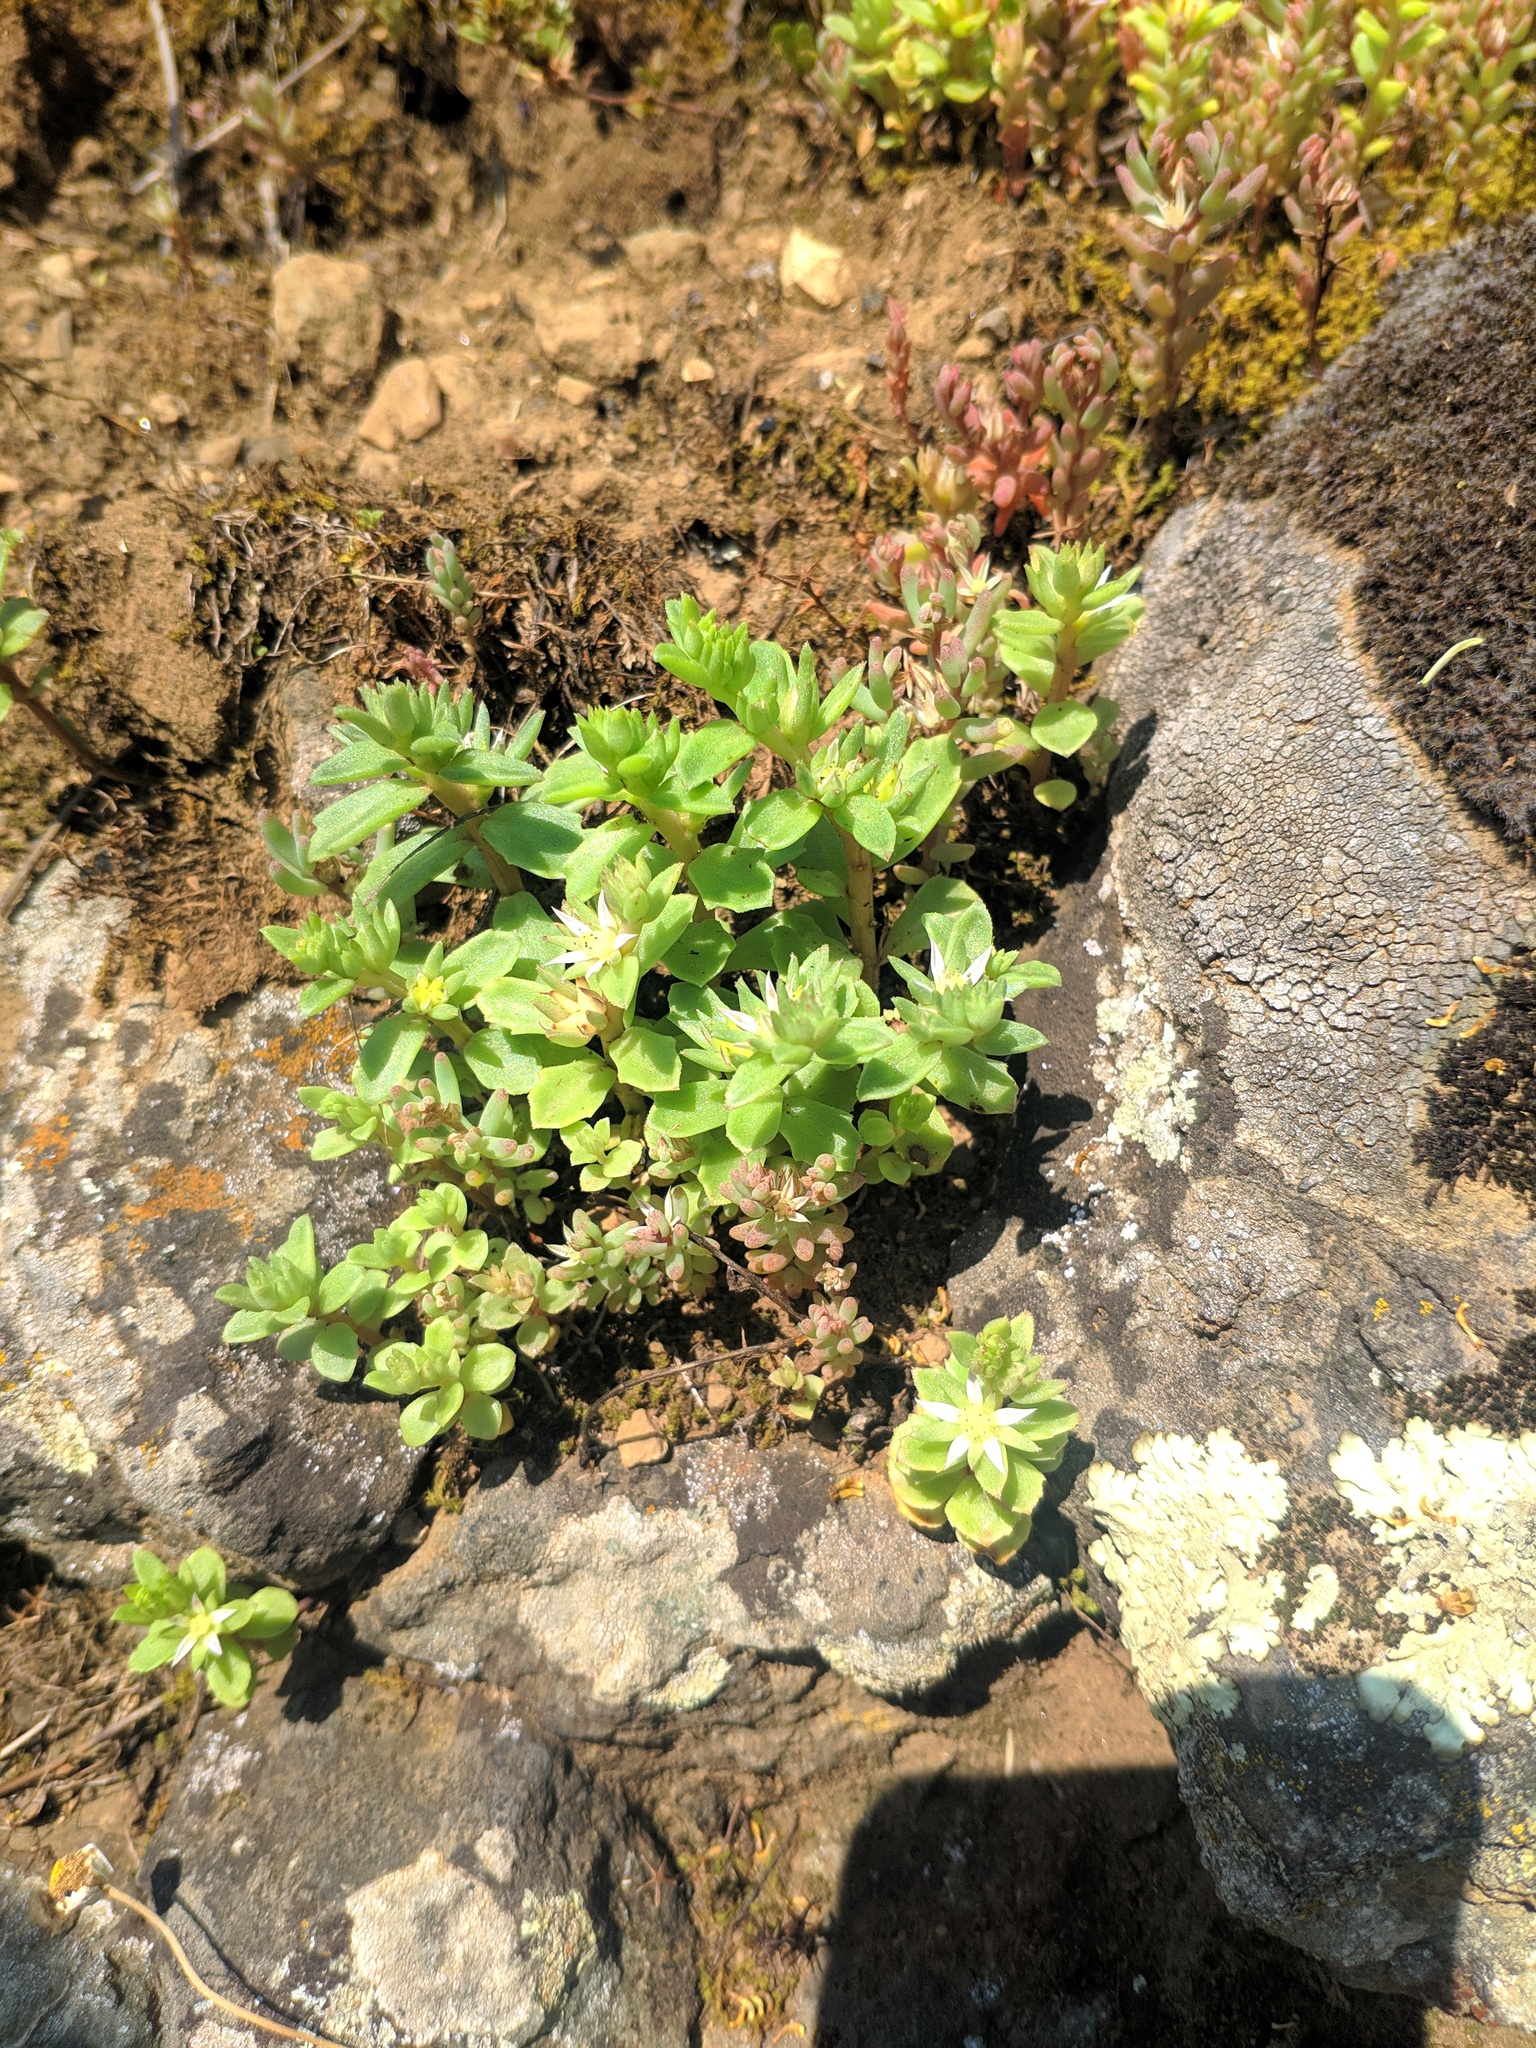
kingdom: Plantae
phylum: Tracheophyta
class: Magnoliopsida
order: Saxifragales
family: Crassulaceae
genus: Phedimus
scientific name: Phedimus stellatus
